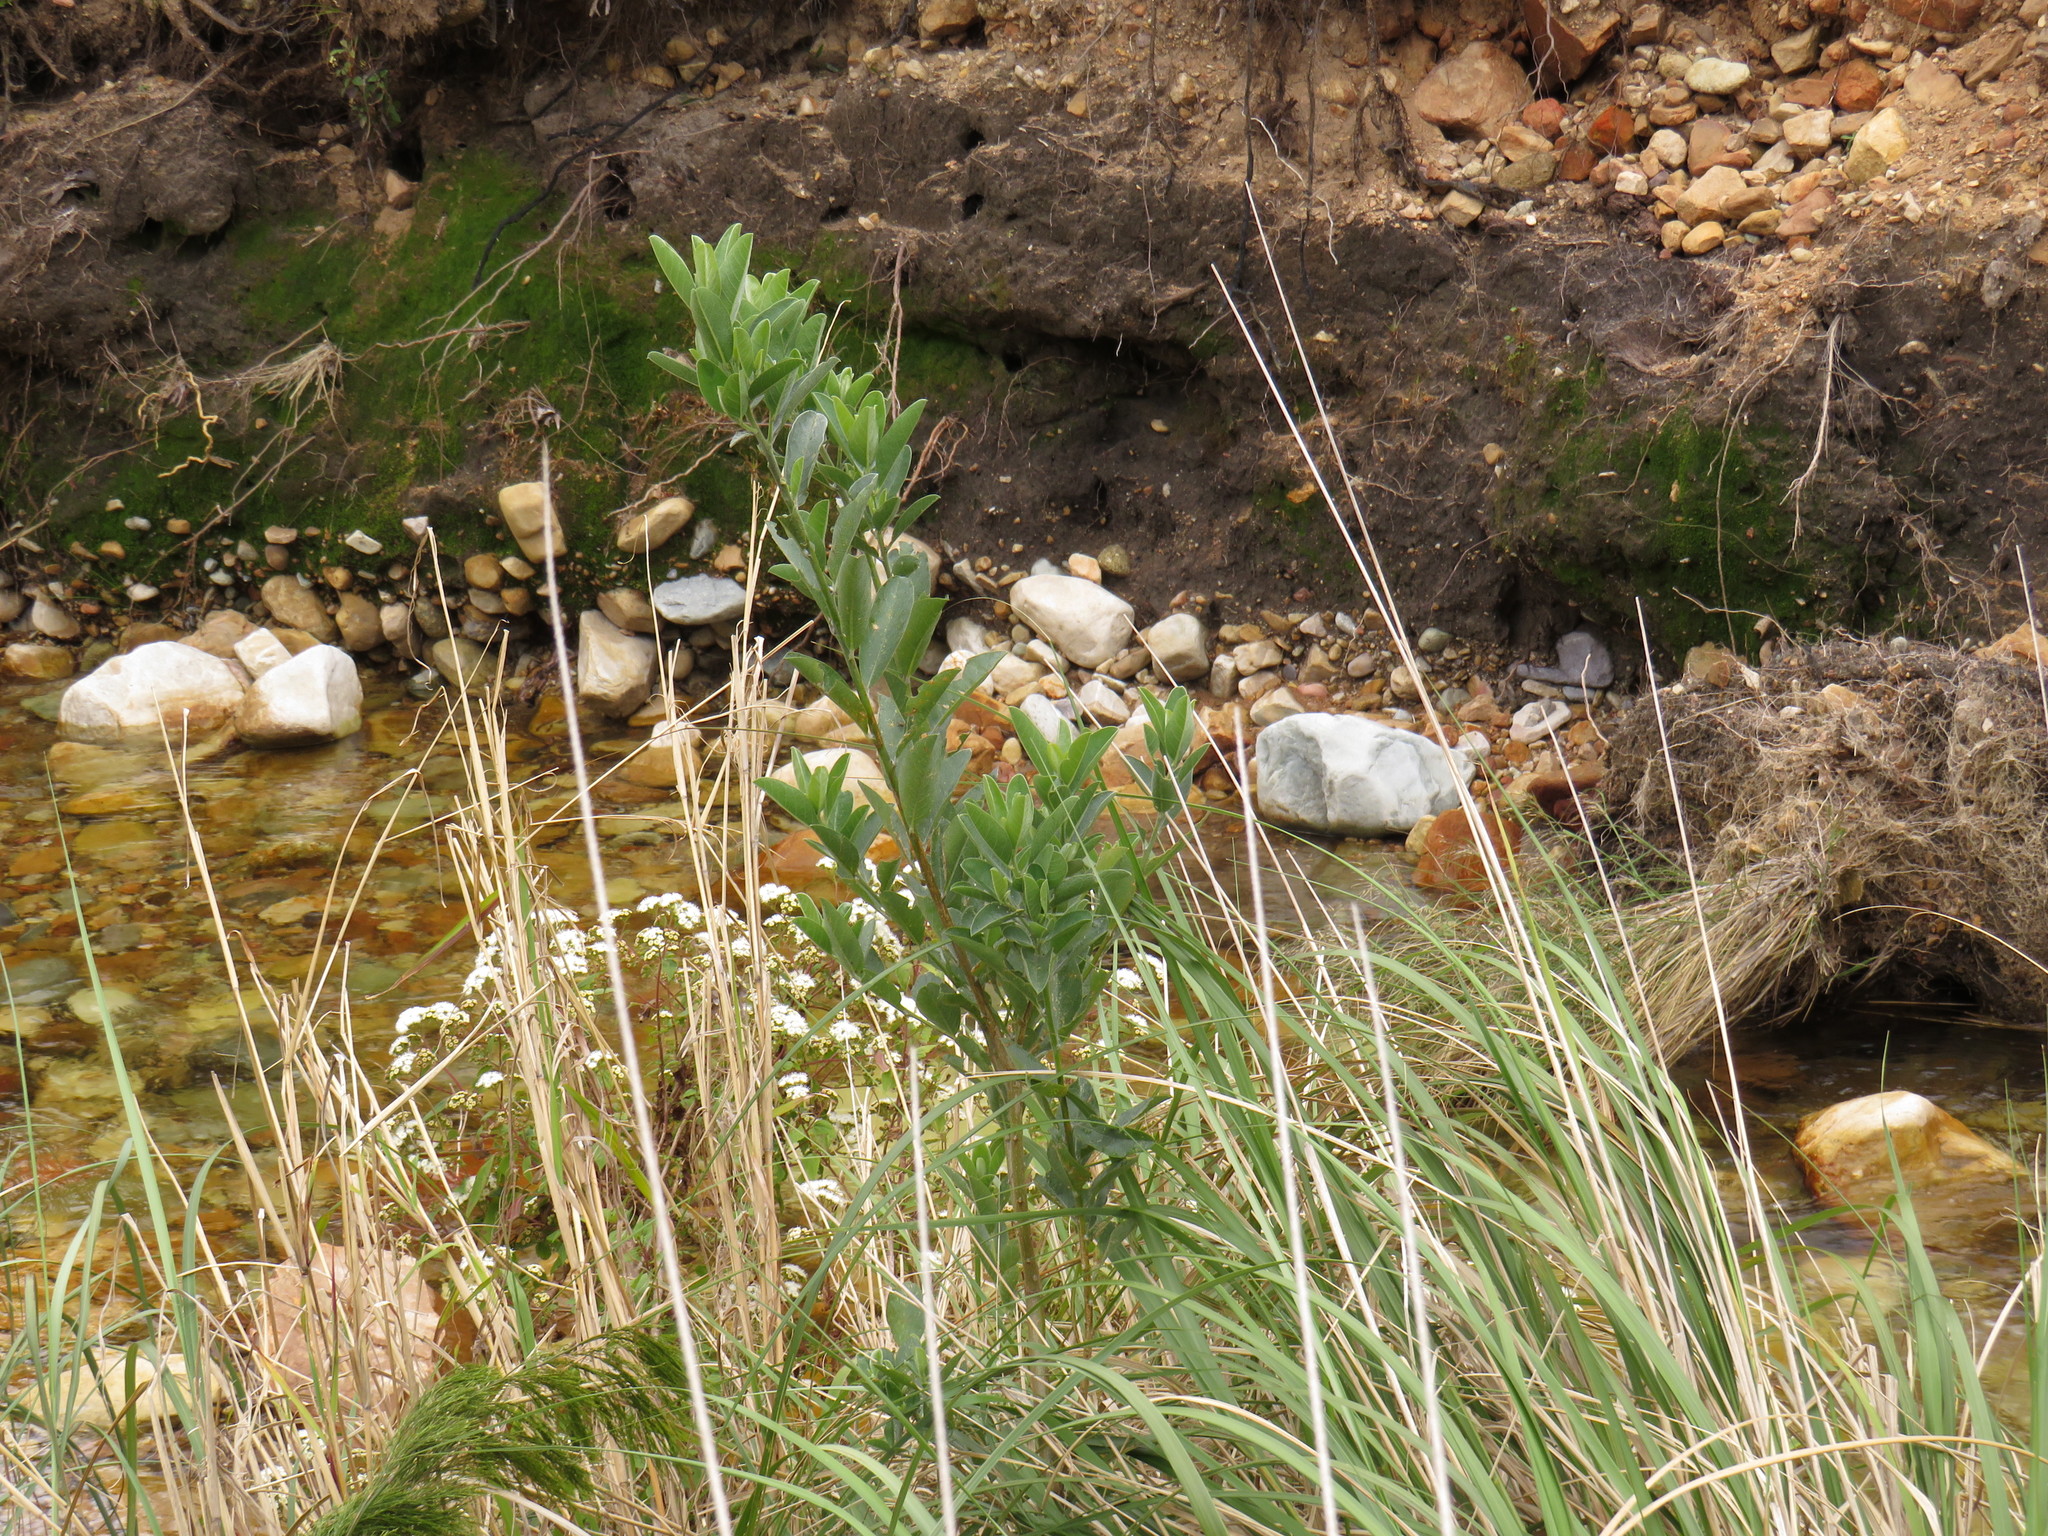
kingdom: Plantae
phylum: Tracheophyta
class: Magnoliopsida
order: Fabales
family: Fabaceae
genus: Podalyria
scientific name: Podalyria calyptrata
